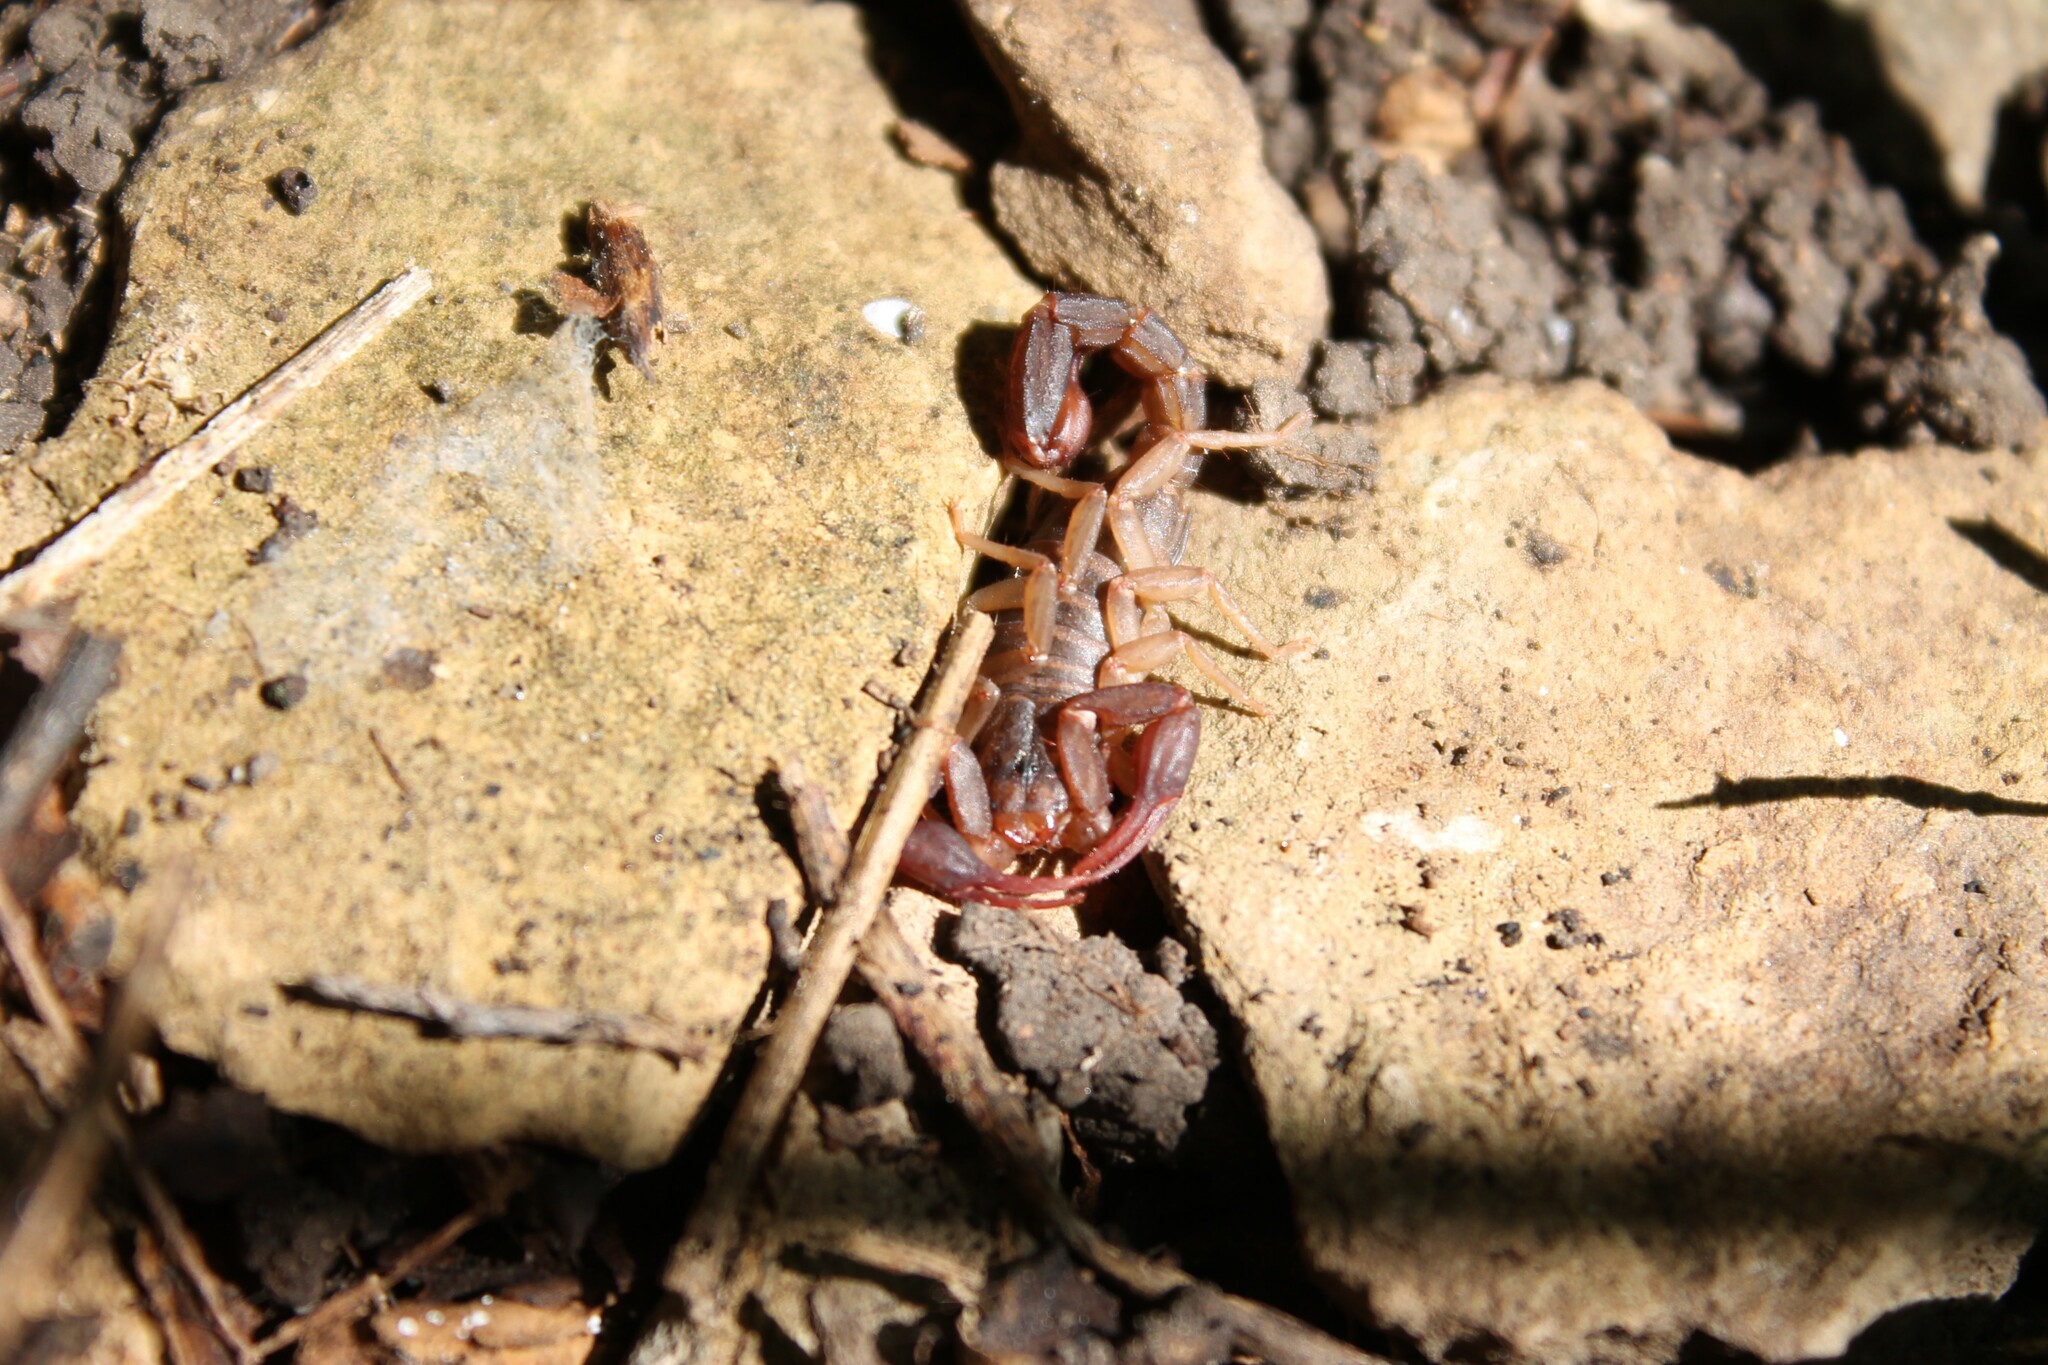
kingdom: Animalia
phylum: Arthropoda
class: Arachnida
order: Scorpiones
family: Vaejovidae
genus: Vaejovis
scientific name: Vaejovis carolinianus
